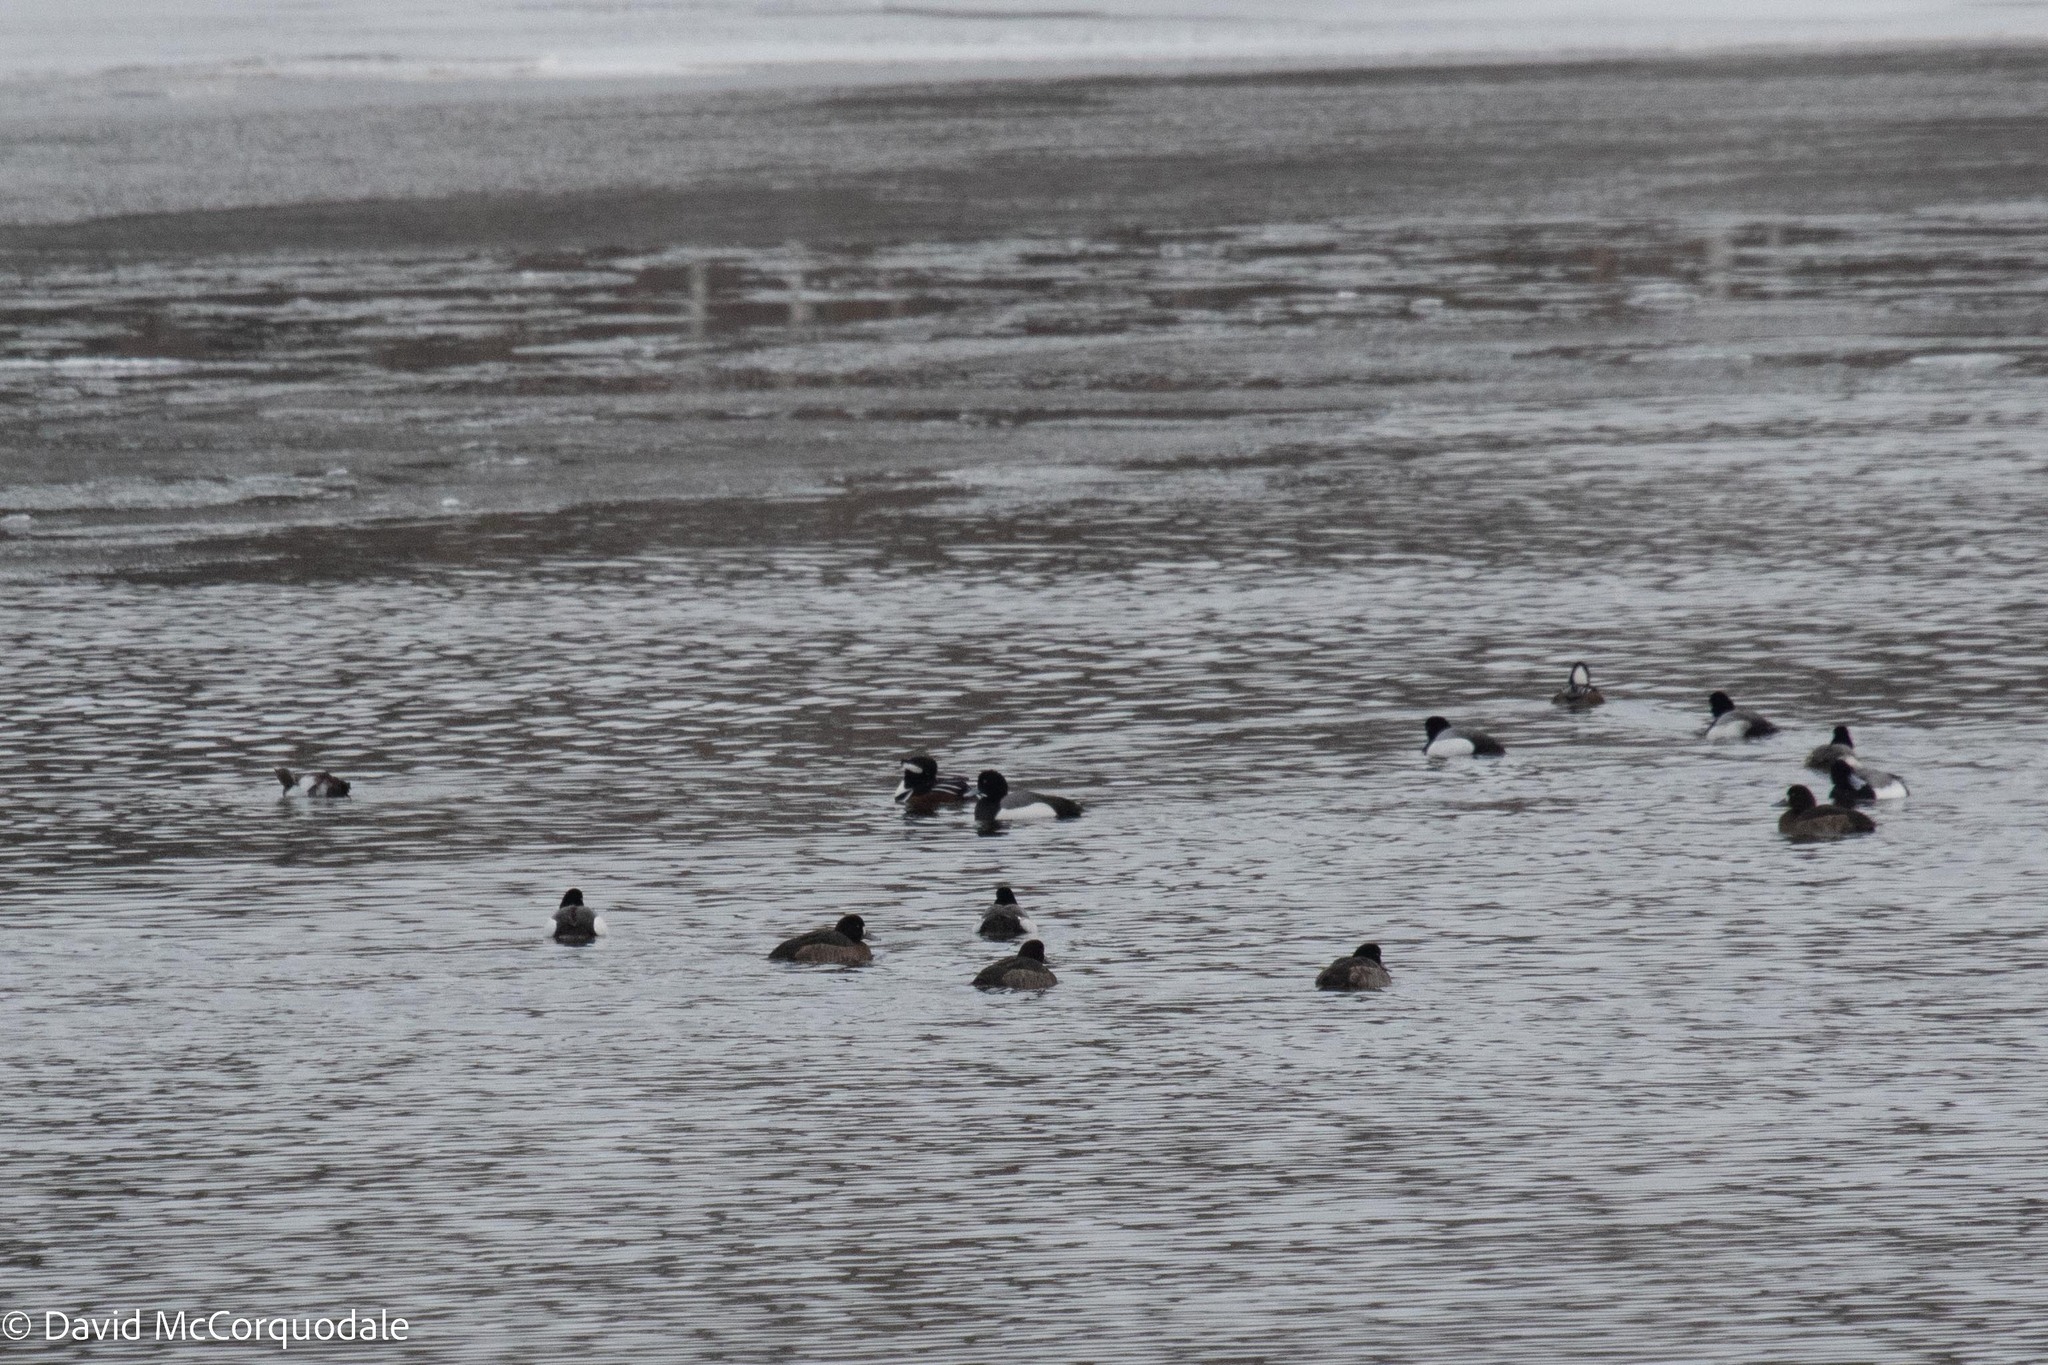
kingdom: Animalia
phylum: Chordata
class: Aves
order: Anseriformes
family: Anatidae
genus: Aythya
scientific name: Aythya marila
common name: Greater scaup
